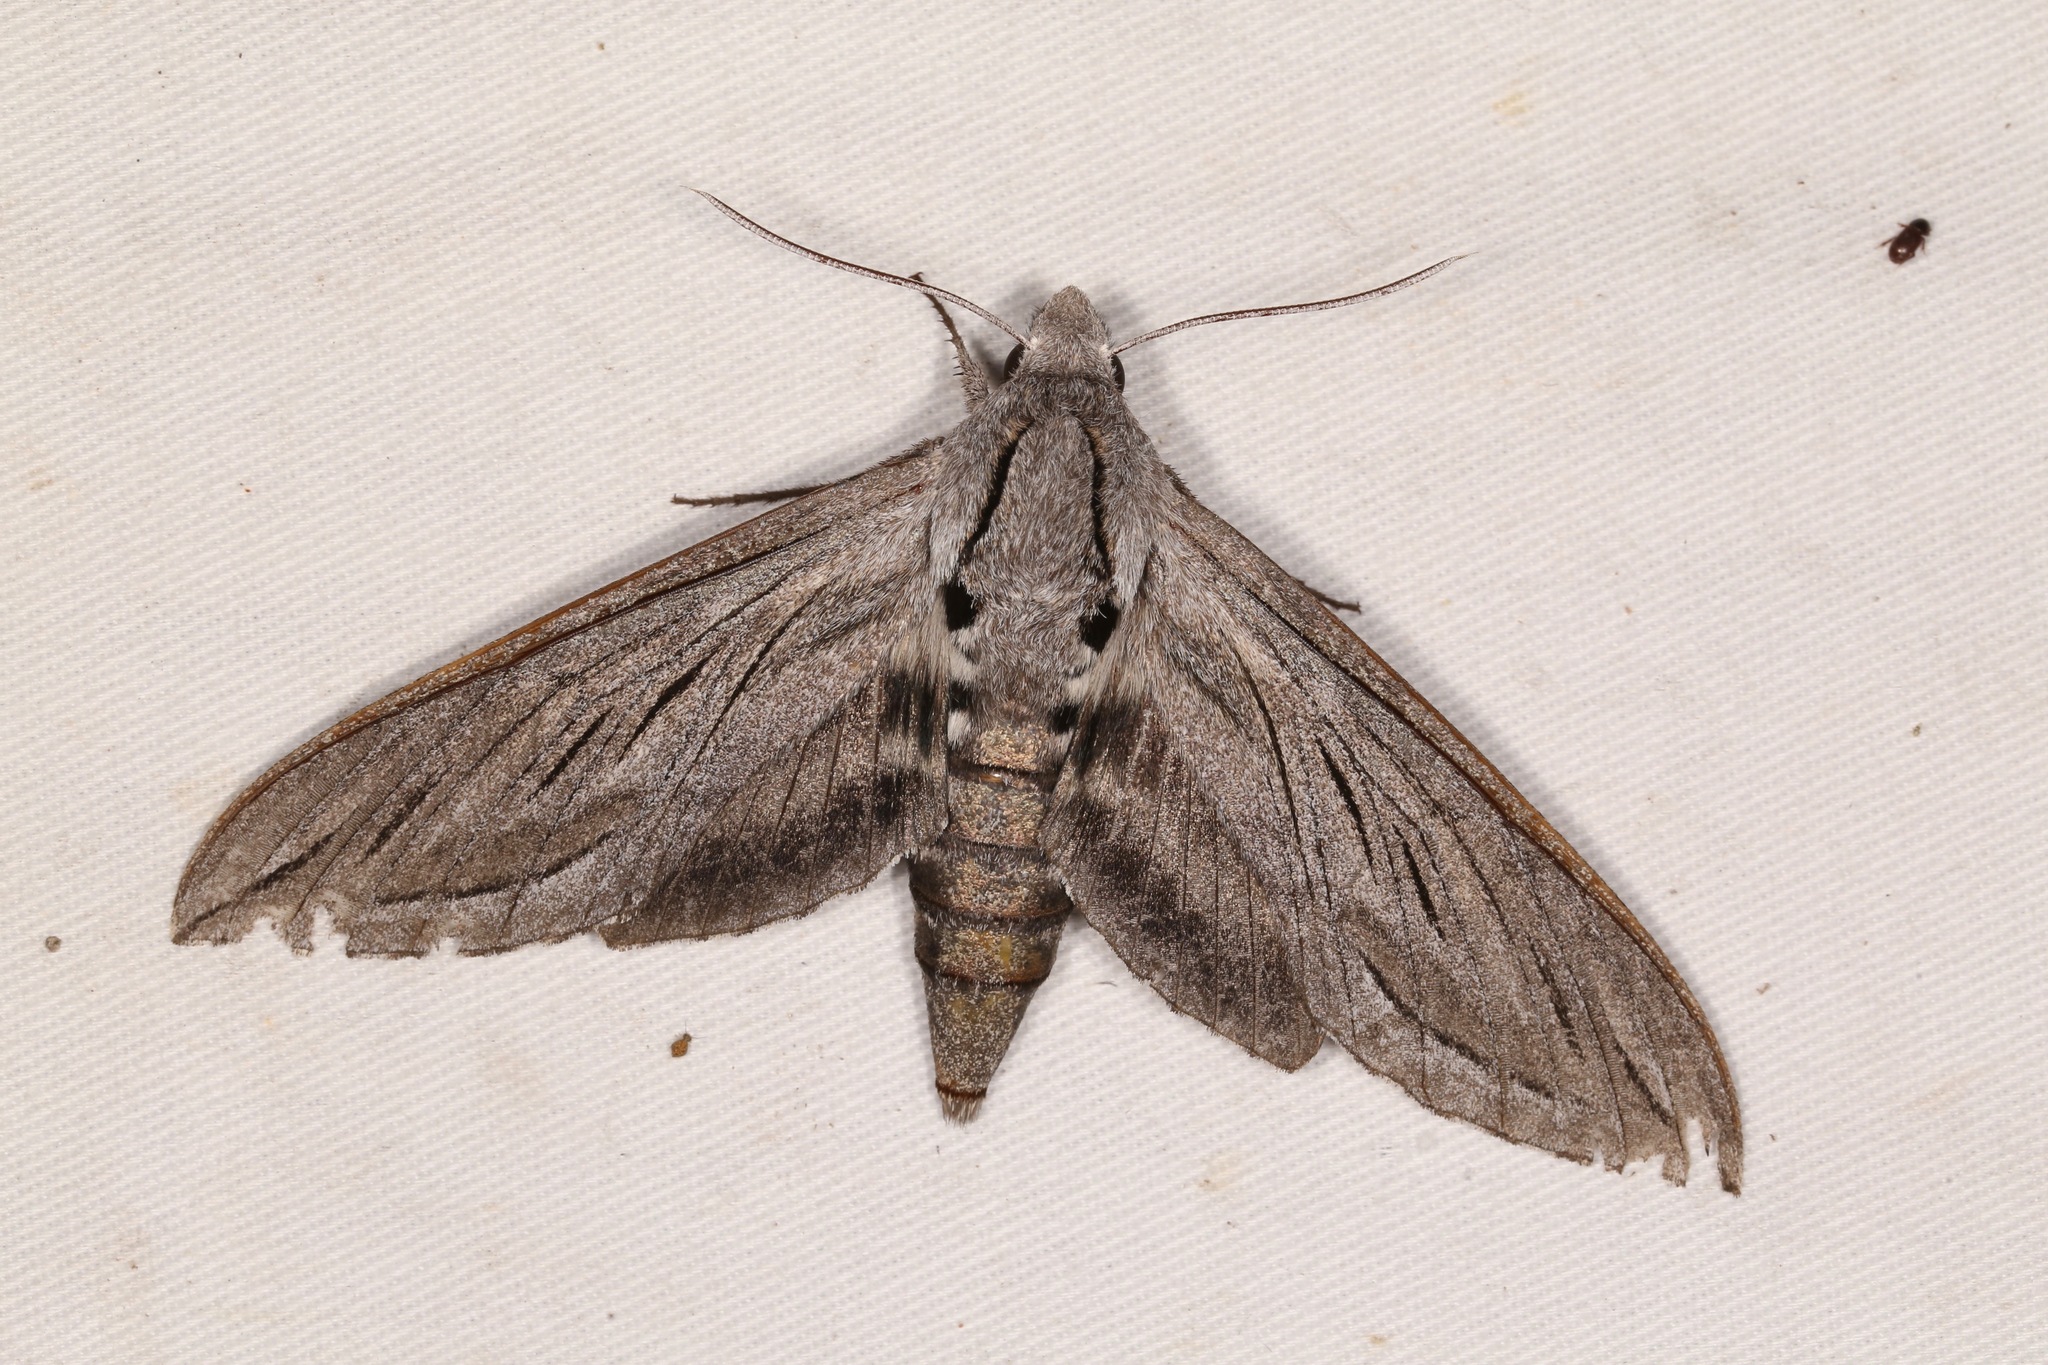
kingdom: Animalia
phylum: Arthropoda
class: Insecta
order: Lepidoptera
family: Sphingidae
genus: Sphinx
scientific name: Sphinx chersis
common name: Great ash sphinx
